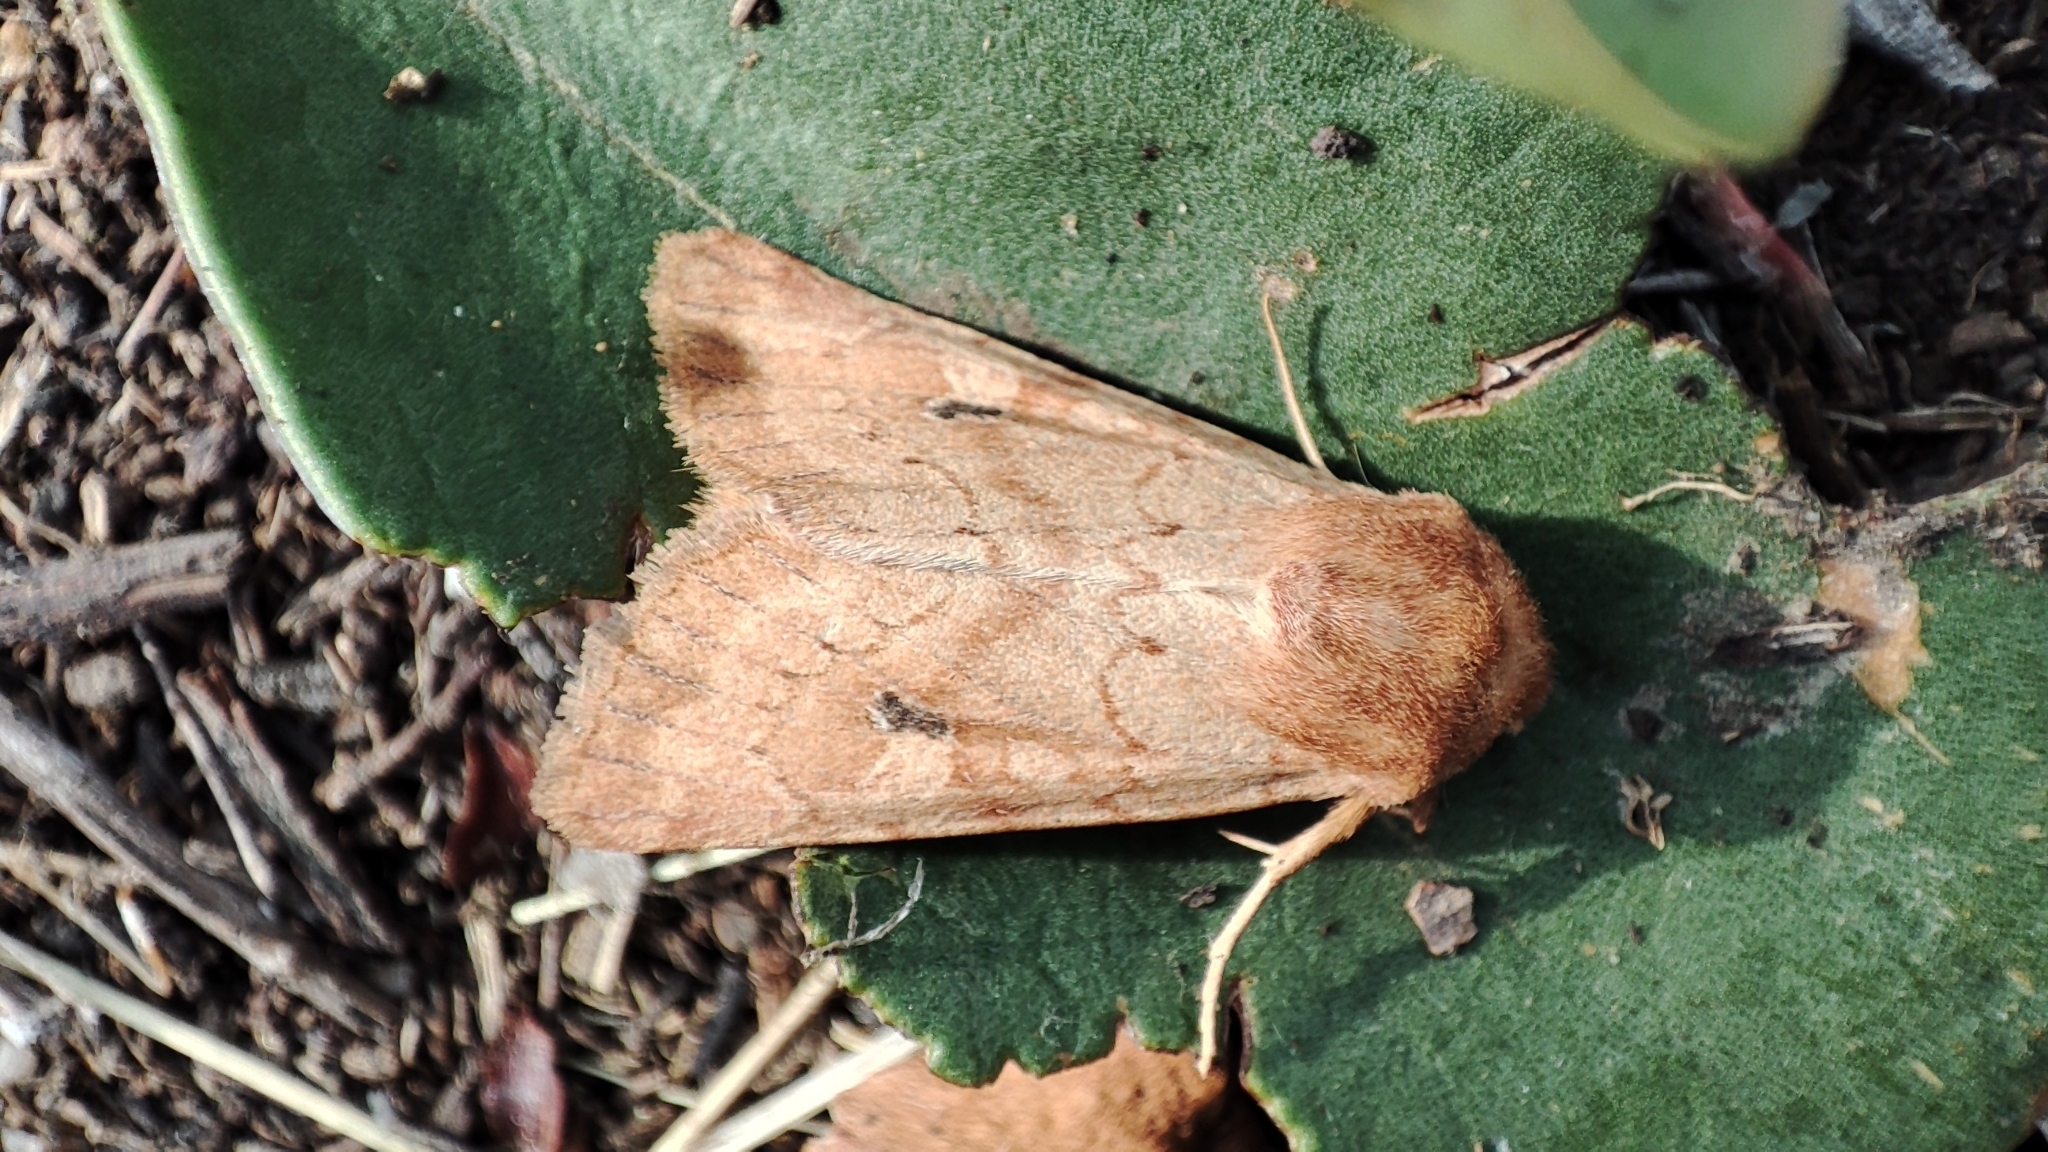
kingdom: Animalia
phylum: Arthropoda
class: Insecta
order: Lepidoptera
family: Noctuidae
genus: Apamea
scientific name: Apamea ferrago
